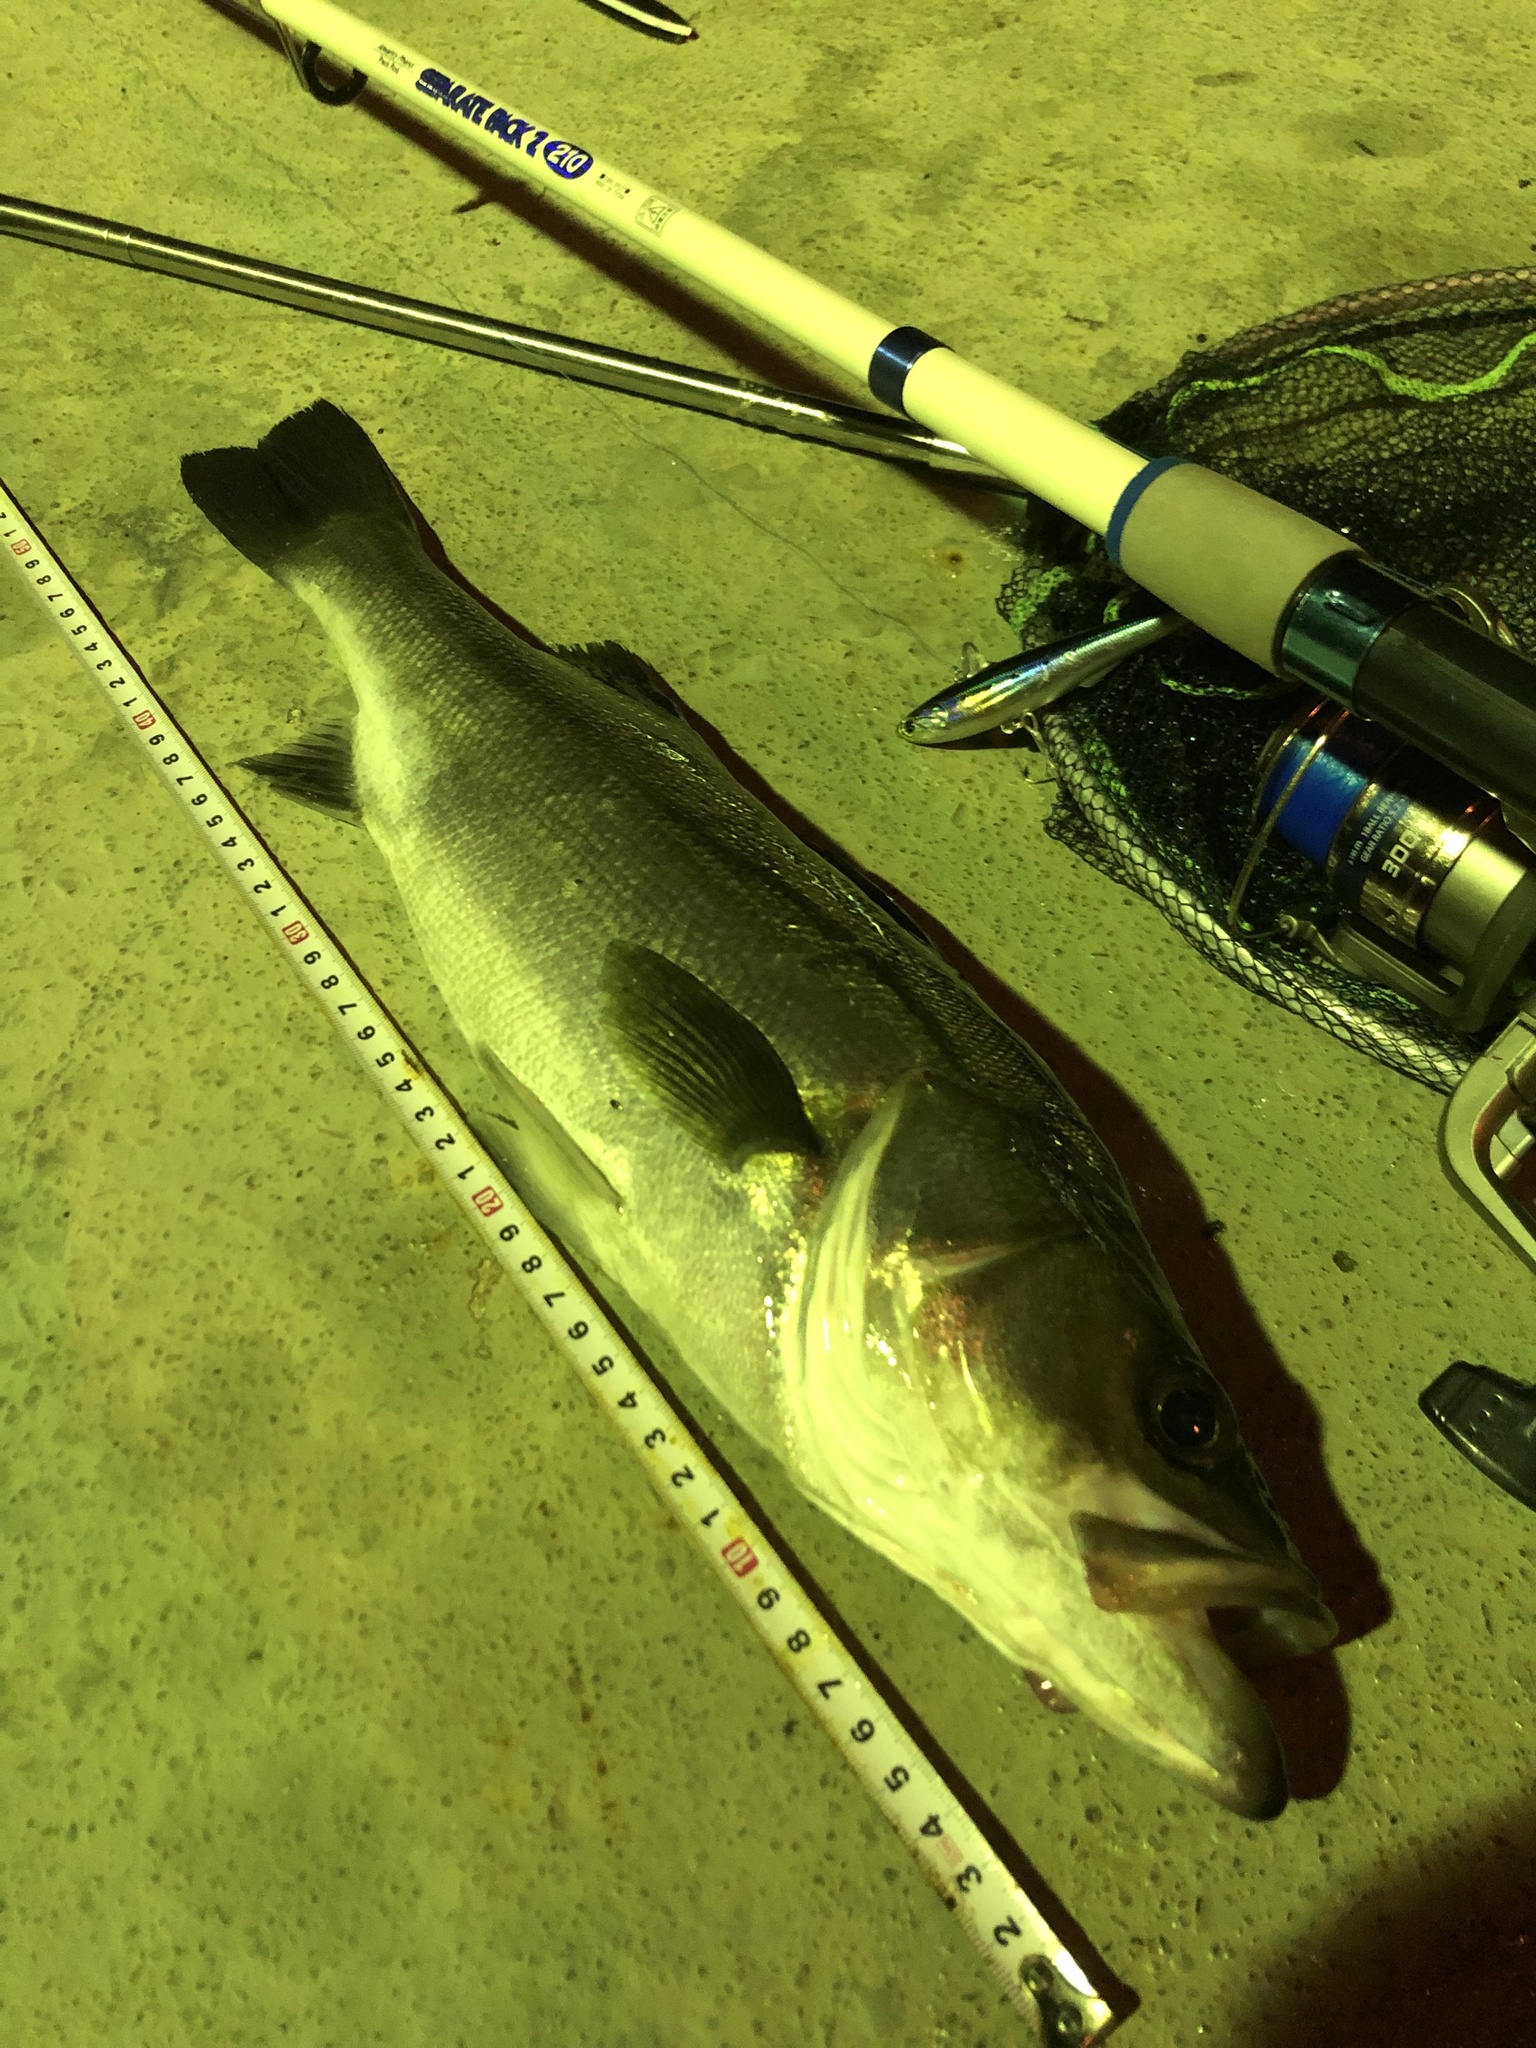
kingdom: Animalia
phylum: Chordata
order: Perciformes
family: Lateolabracidae
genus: Lateolabrax
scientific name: Lateolabrax japonicus
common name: Japan sea bass
